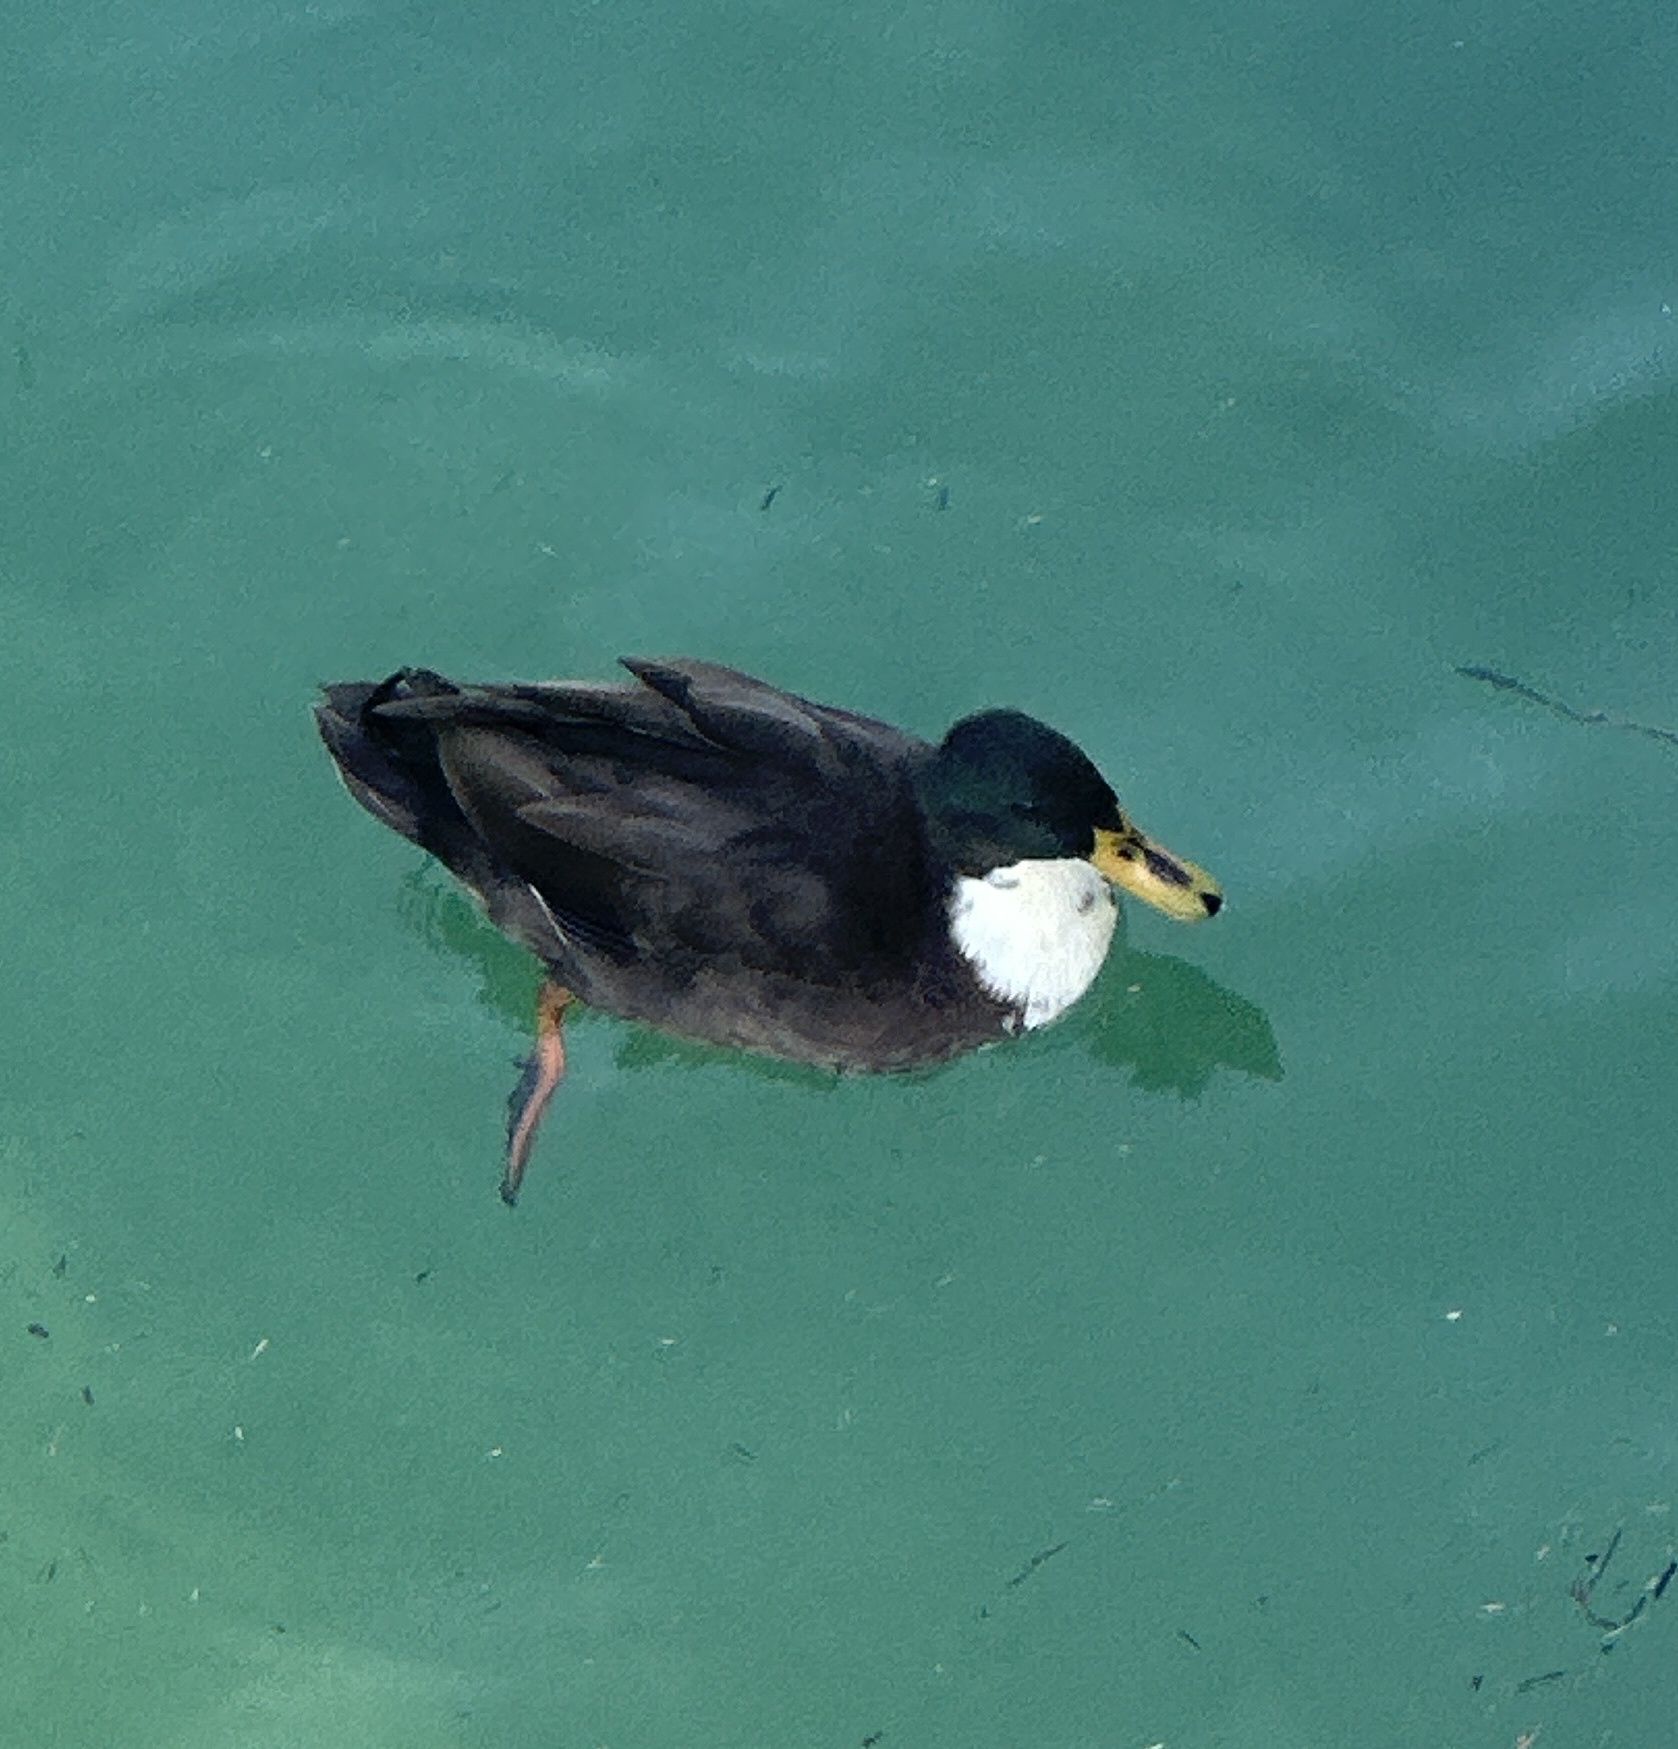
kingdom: Animalia
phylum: Chordata
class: Aves
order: Anseriformes
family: Anatidae
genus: Anas
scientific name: Anas platyrhynchos
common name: Mallard
